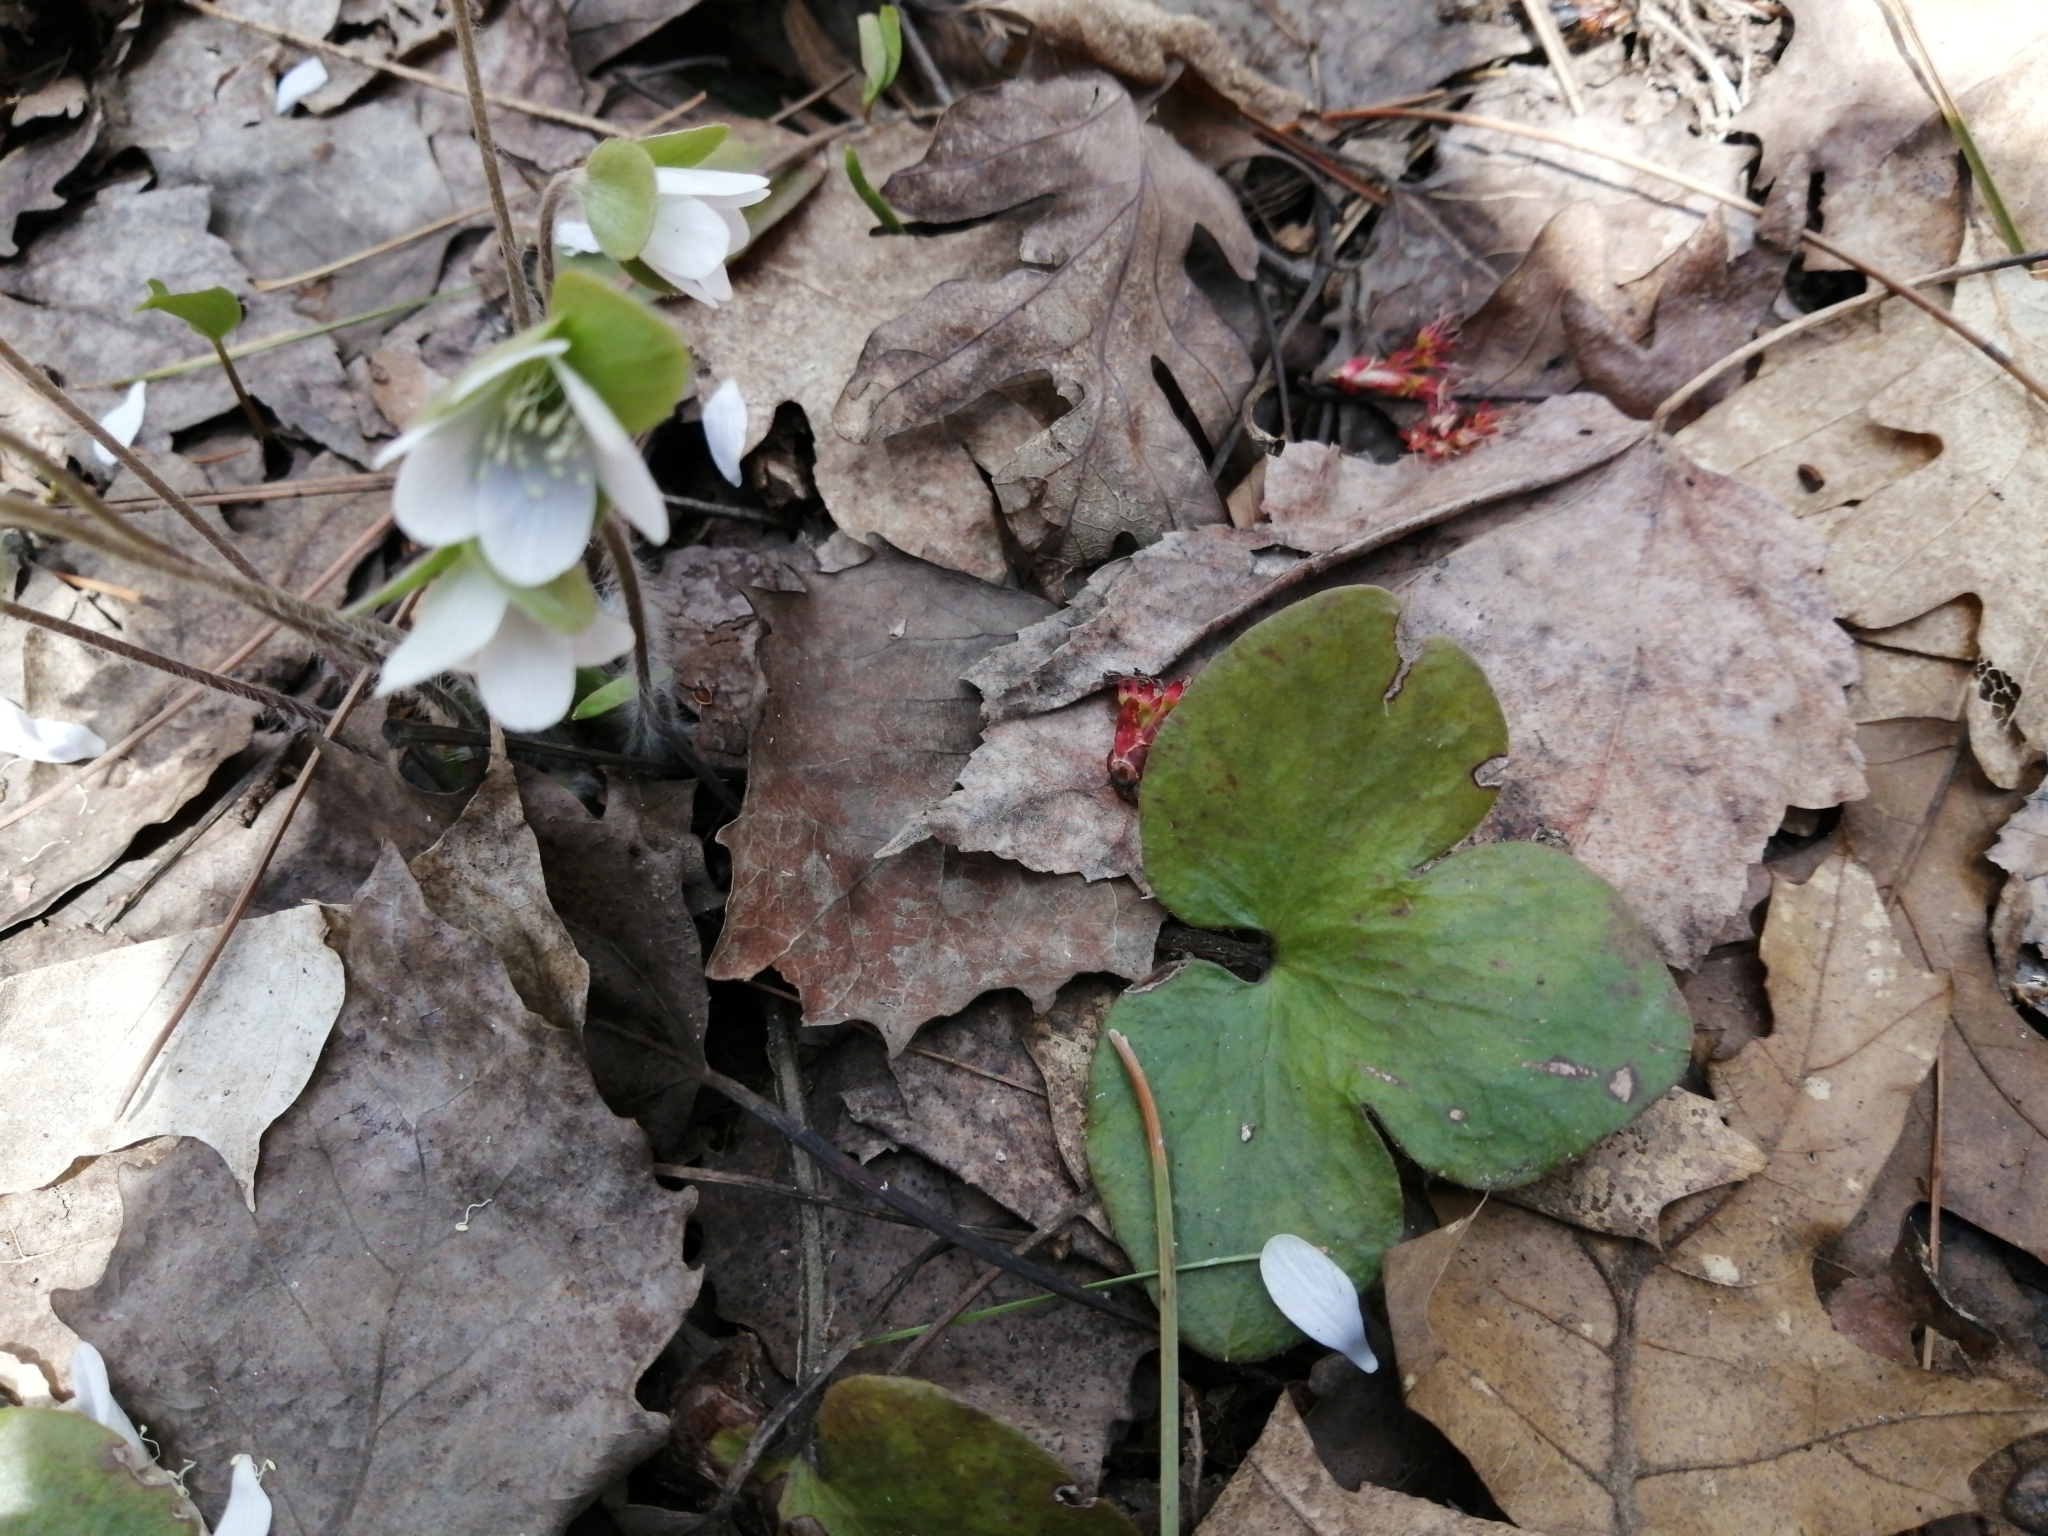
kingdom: Plantae
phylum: Tracheophyta
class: Magnoliopsida
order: Ranunculales
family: Ranunculaceae
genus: Hepatica
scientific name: Hepatica americana
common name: American hepatica
